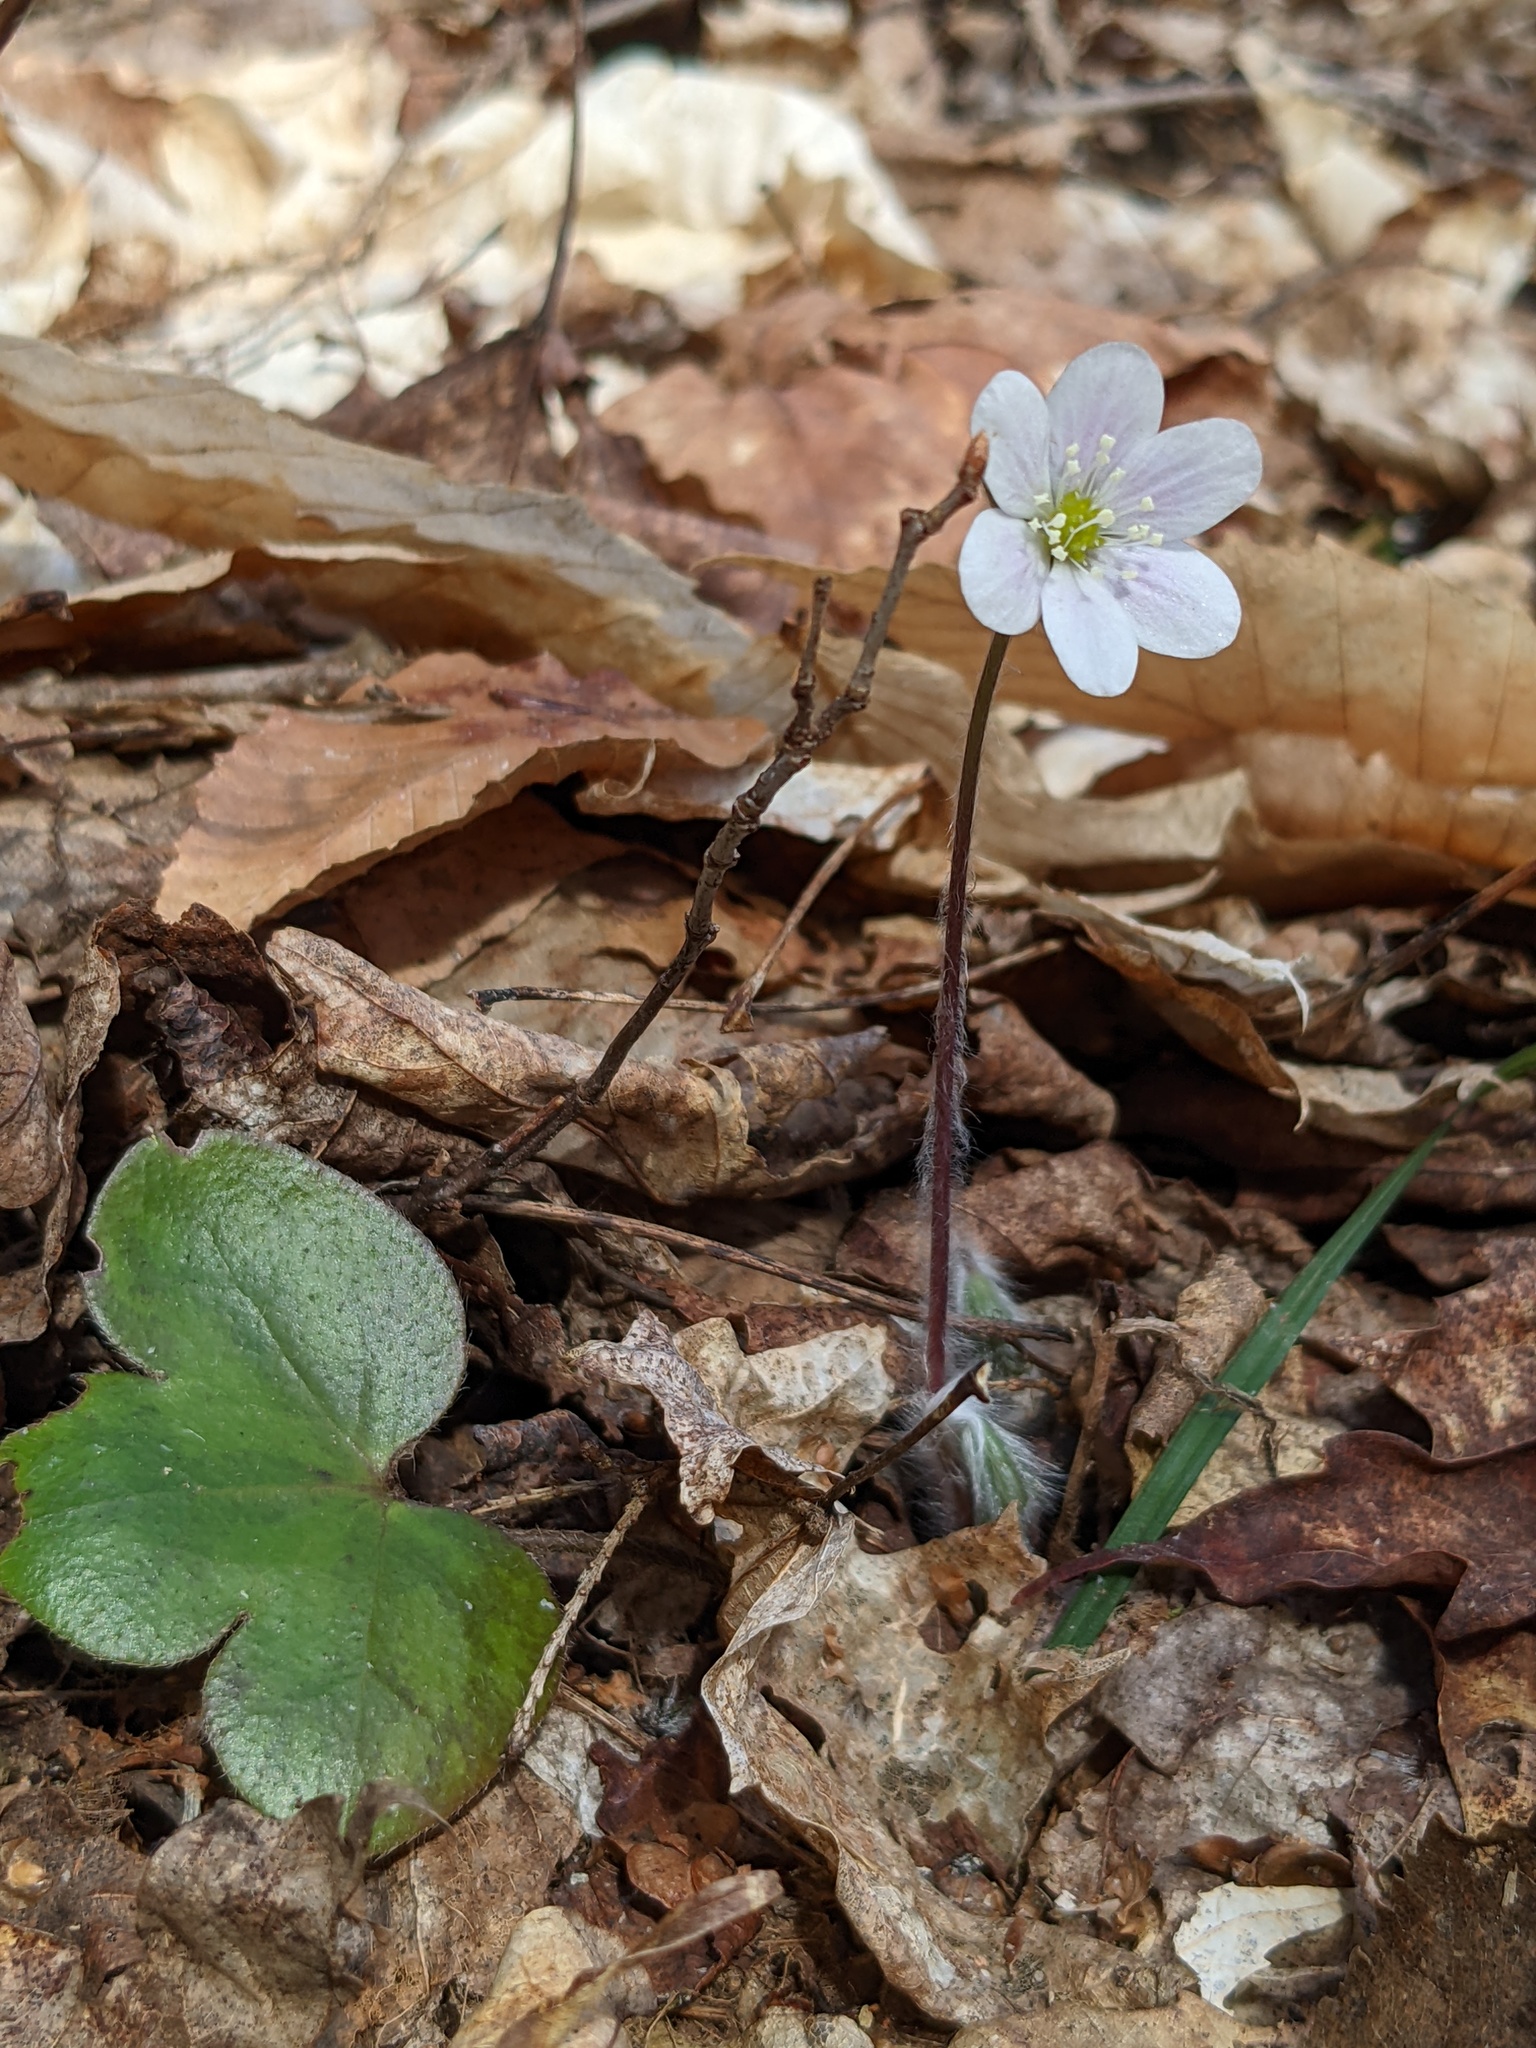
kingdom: Plantae
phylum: Tracheophyta
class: Magnoliopsida
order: Ranunculales
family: Ranunculaceae
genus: Hepatica
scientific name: Hepatica americana
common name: American hepatica
